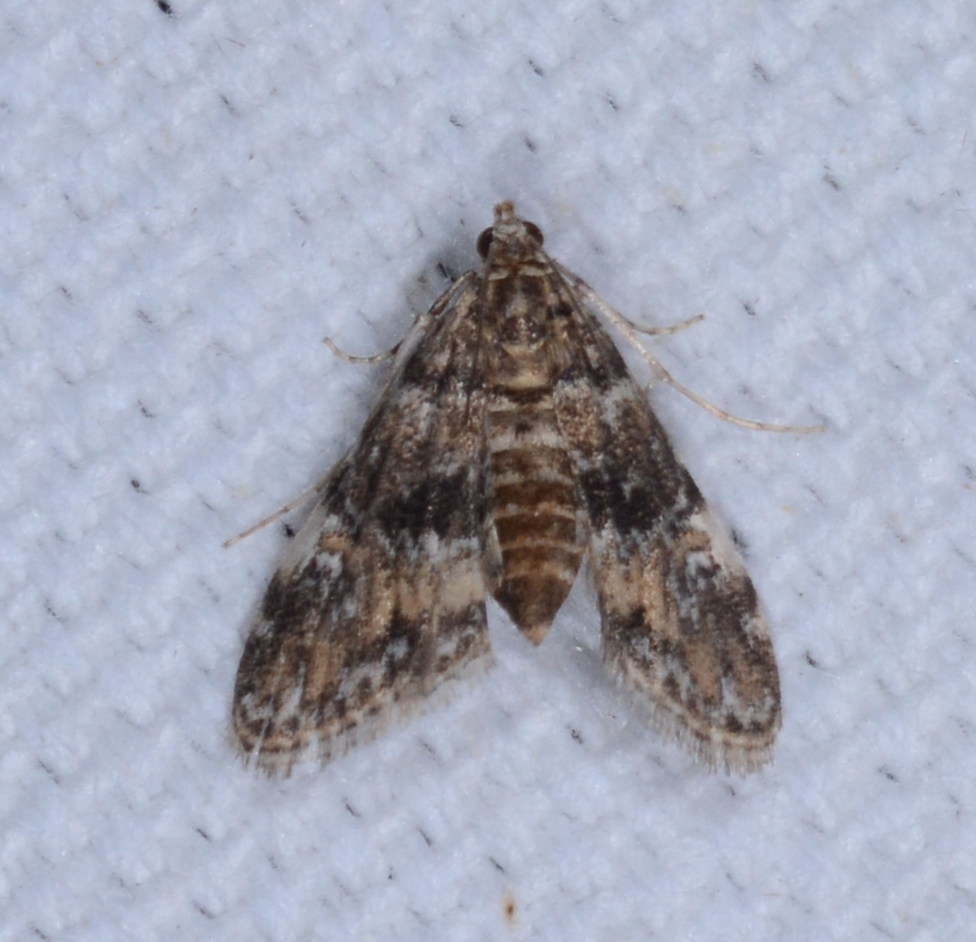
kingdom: Animalia
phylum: Arthropoda
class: Insecta
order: Lepidoptera
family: Crambidae
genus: Elophila
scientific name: Elophila obliteralis
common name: Waterlily leafcutter moth
